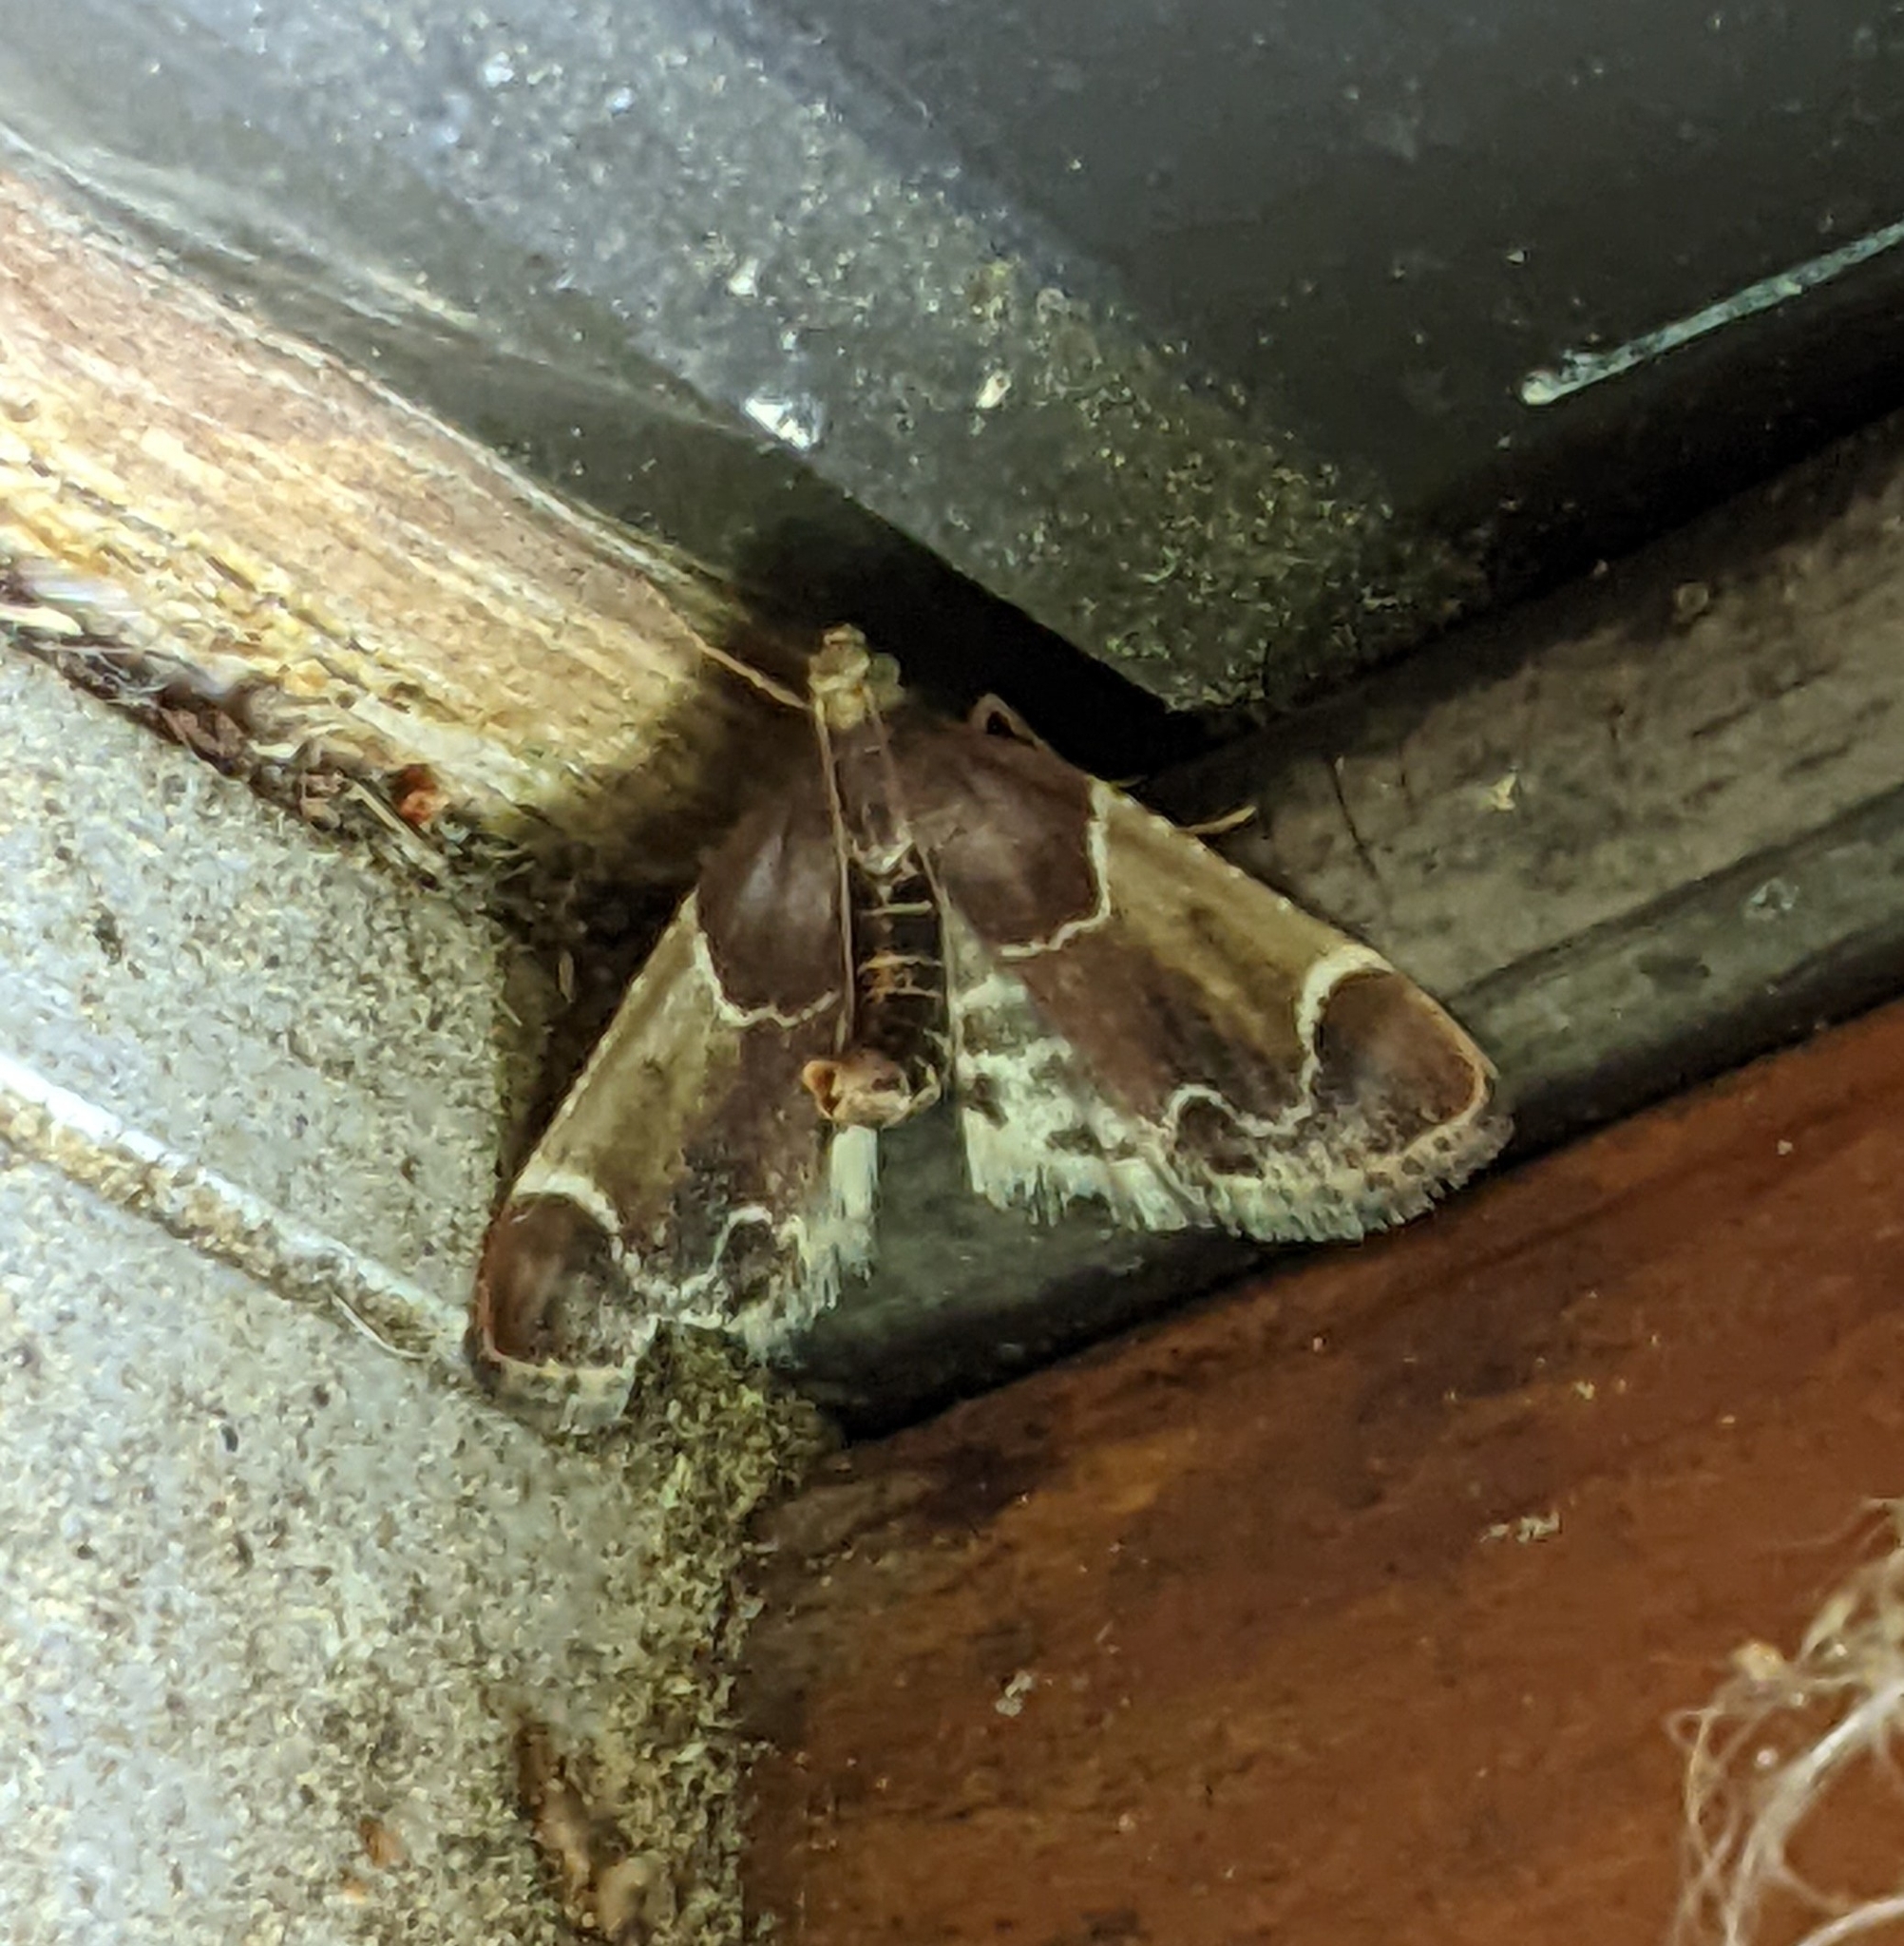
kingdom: Animalia
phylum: Arthropoda
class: Insecta
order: Lepidoptera
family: Pyralidae
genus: Pyralis
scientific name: Pyralis farinalis
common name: Meal moth
